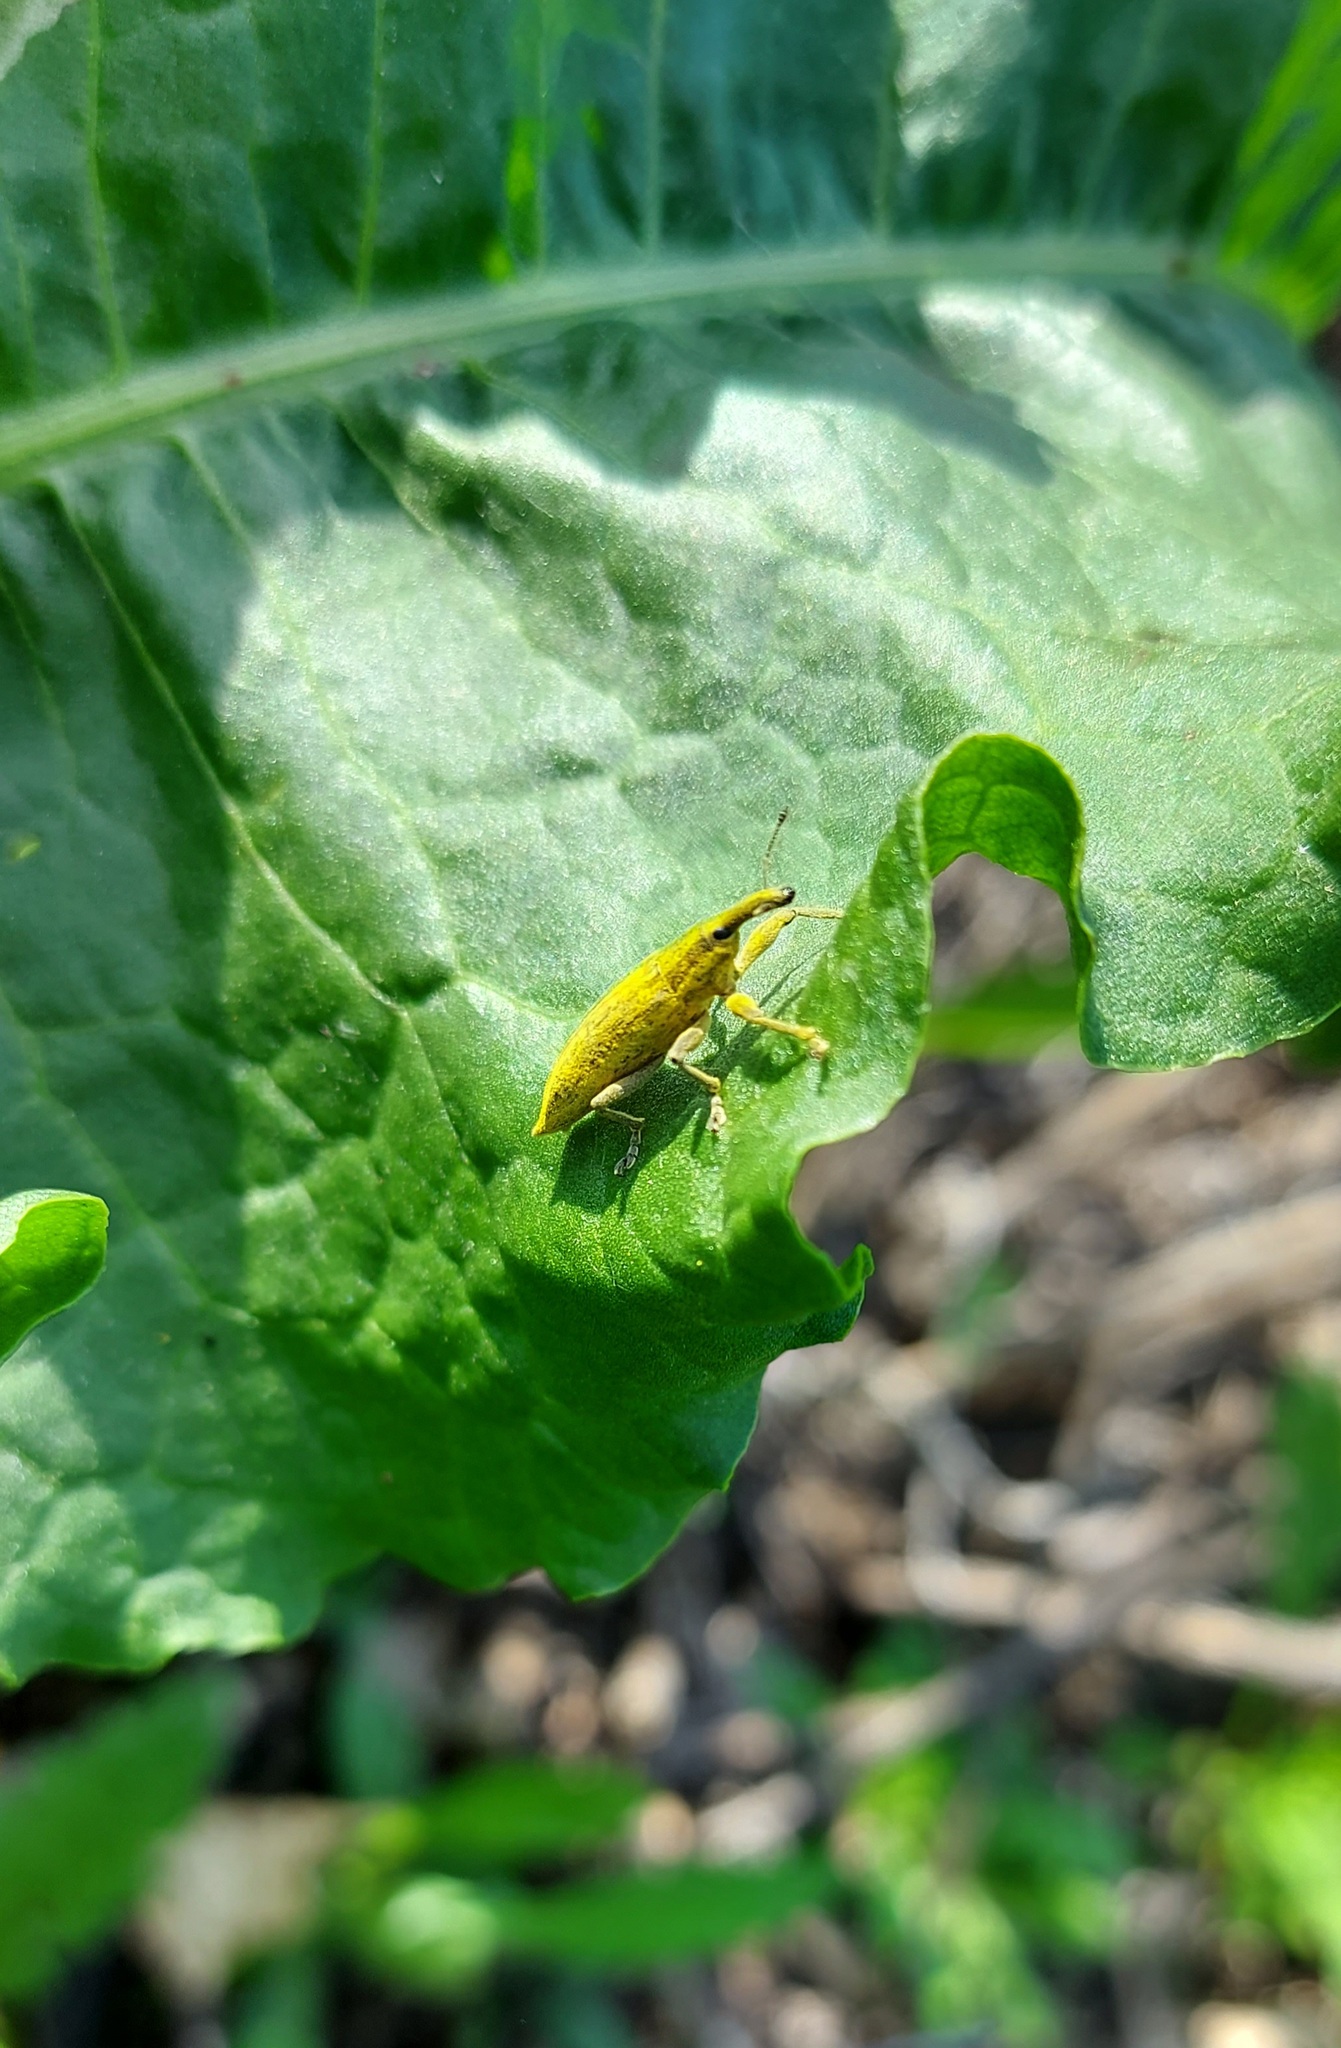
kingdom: Animalia
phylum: Arthropoda
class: Insecta
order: Coleoptera
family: Curculionidae
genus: Lixus
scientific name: Lixus iridis
